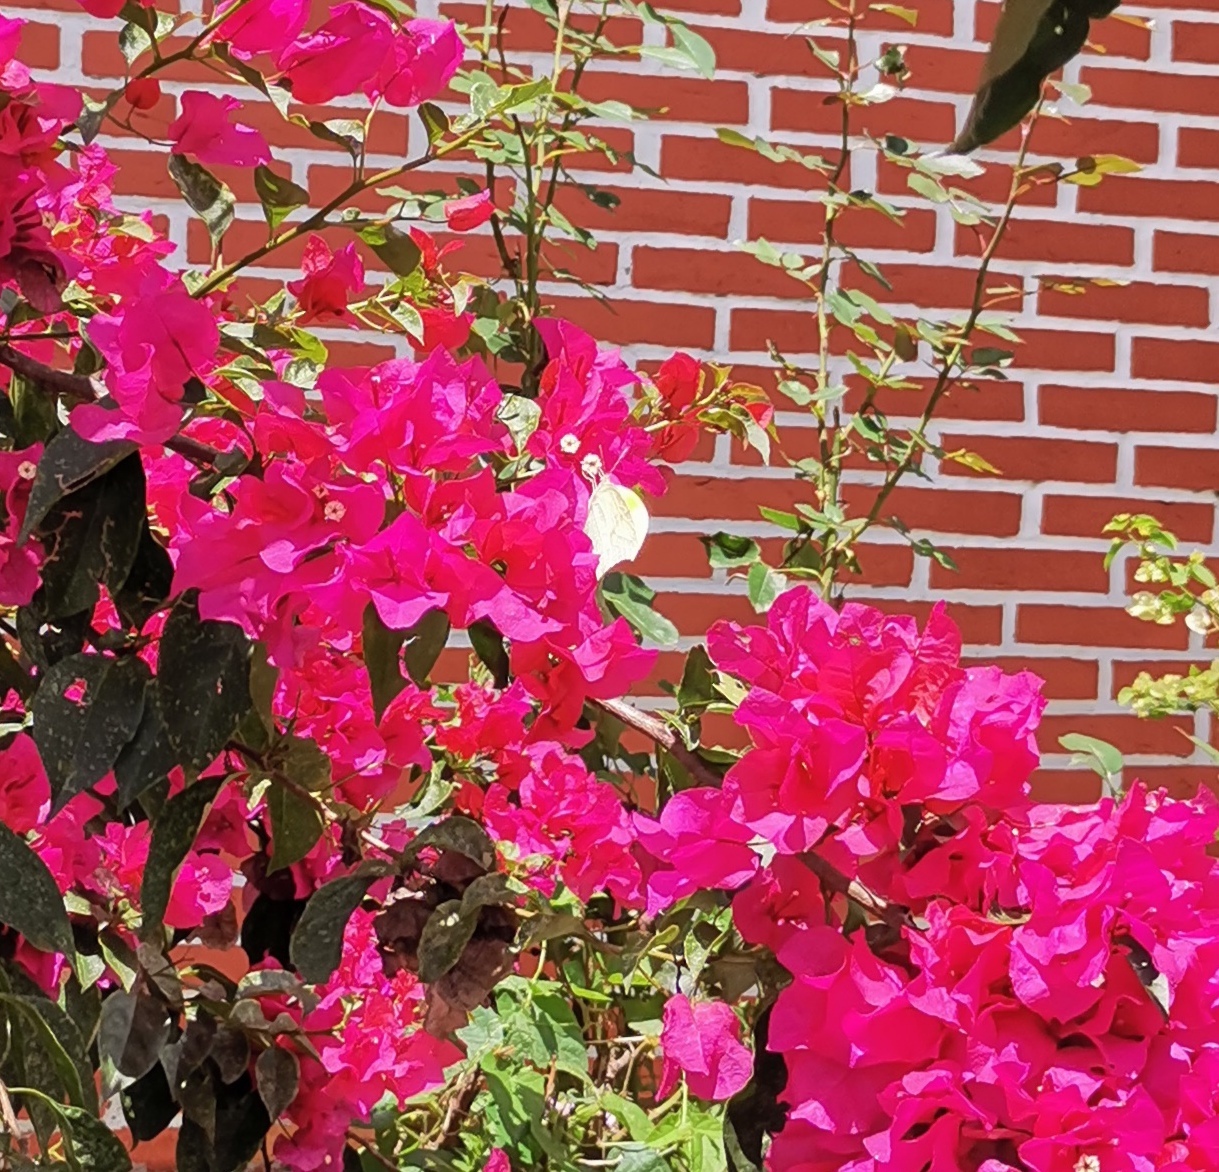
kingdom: Animalia
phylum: Arthropoda
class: Insecta
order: Lepidoptera
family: Pieridae
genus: Anteos
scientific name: Anteos clorinde
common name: White angled sulphur
